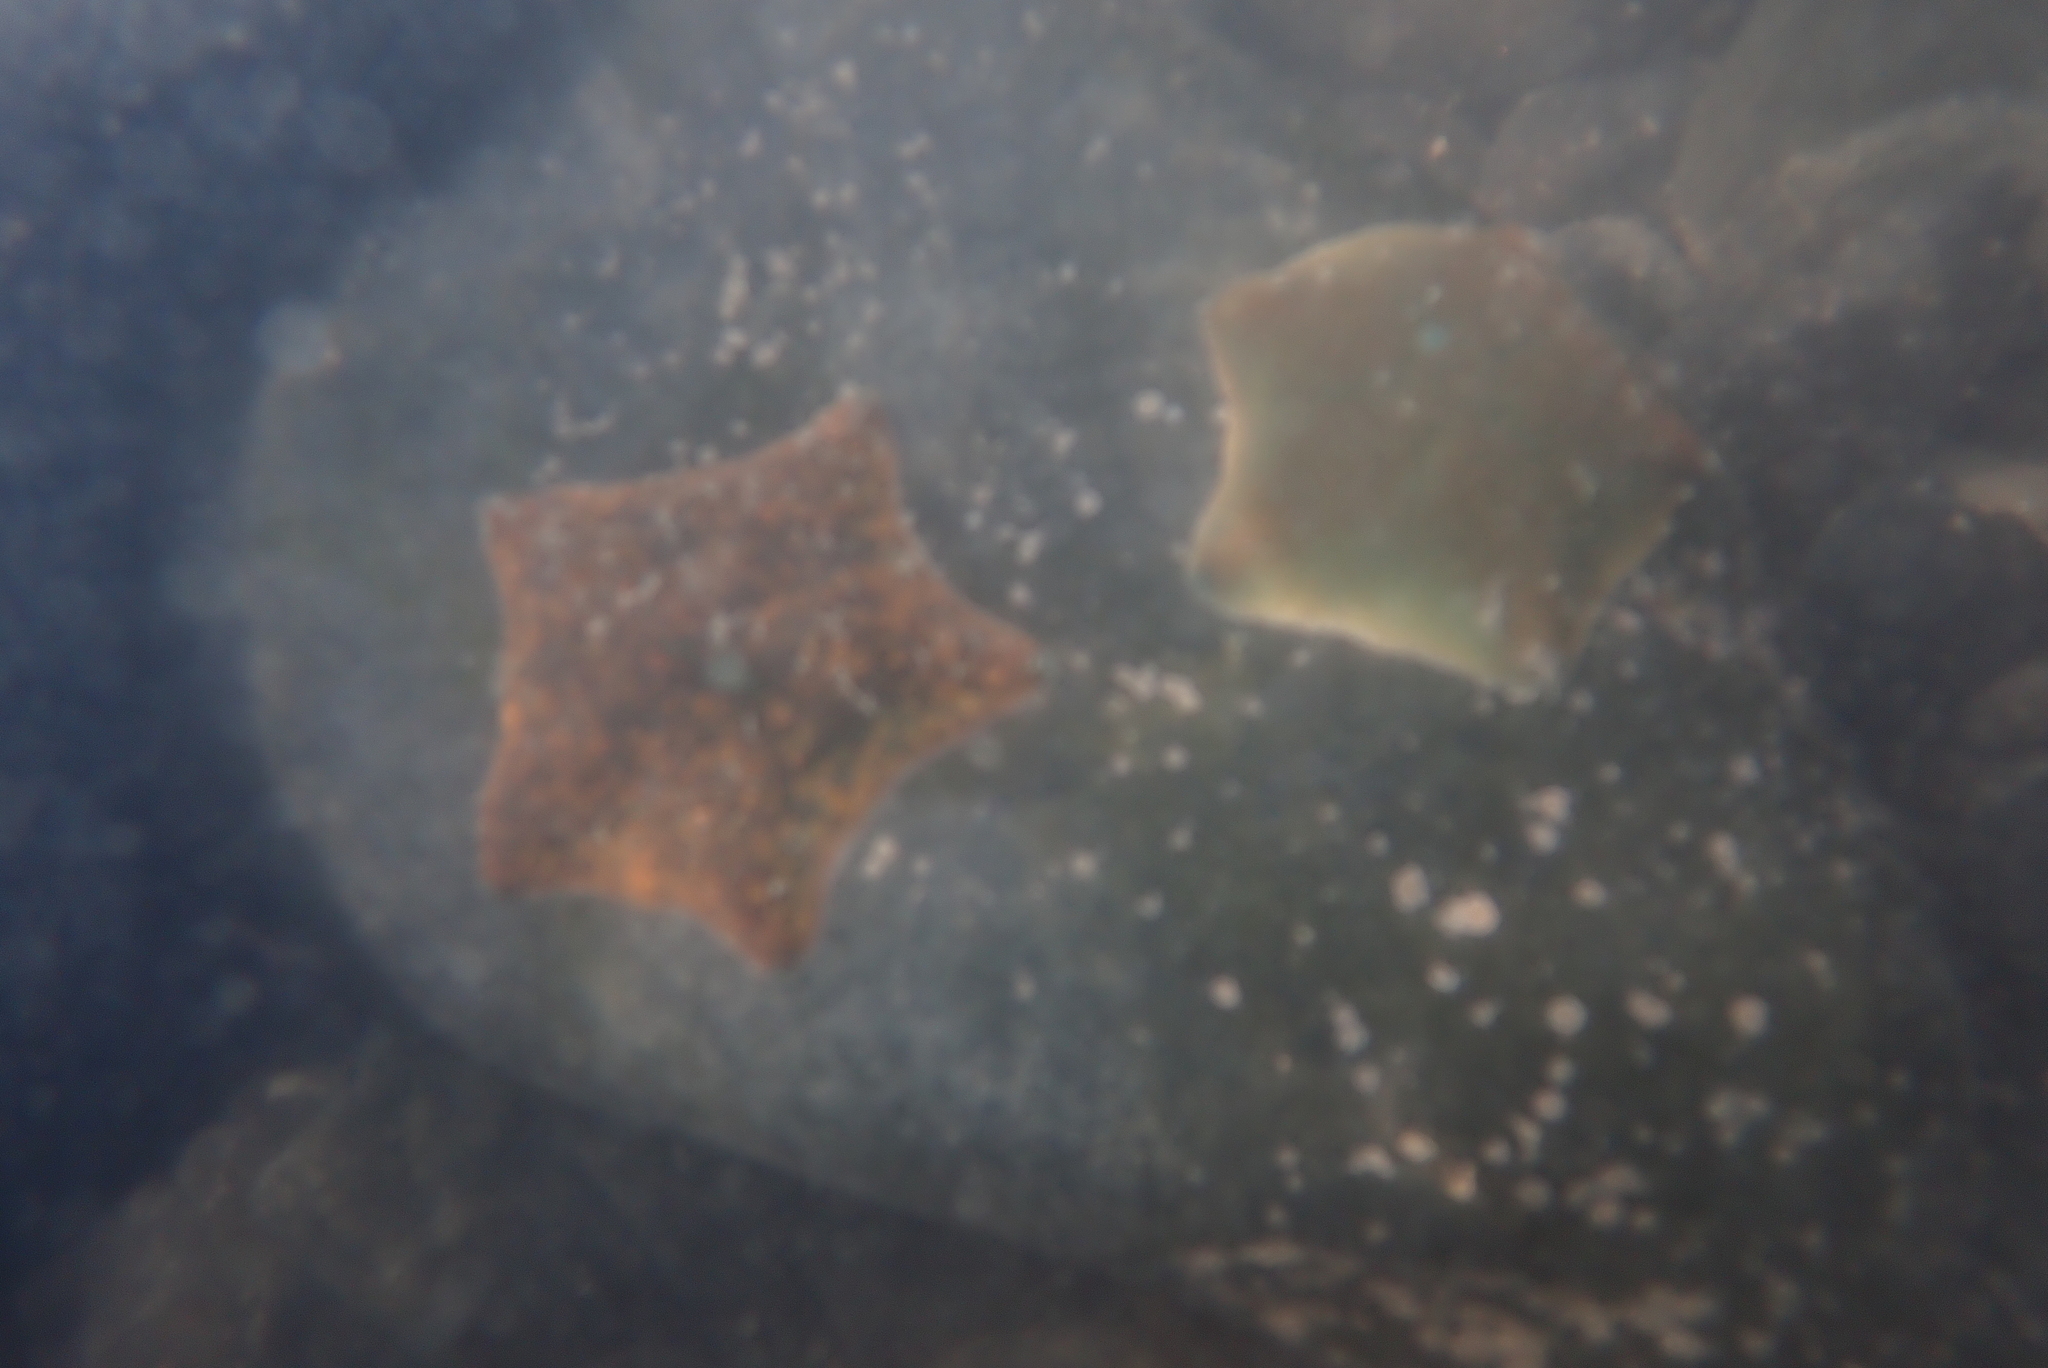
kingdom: Animalia
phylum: Echinodermata
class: Asteroidea
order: Valvatida
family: Asterinidae
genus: Patiriella
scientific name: Patiriella regularis
